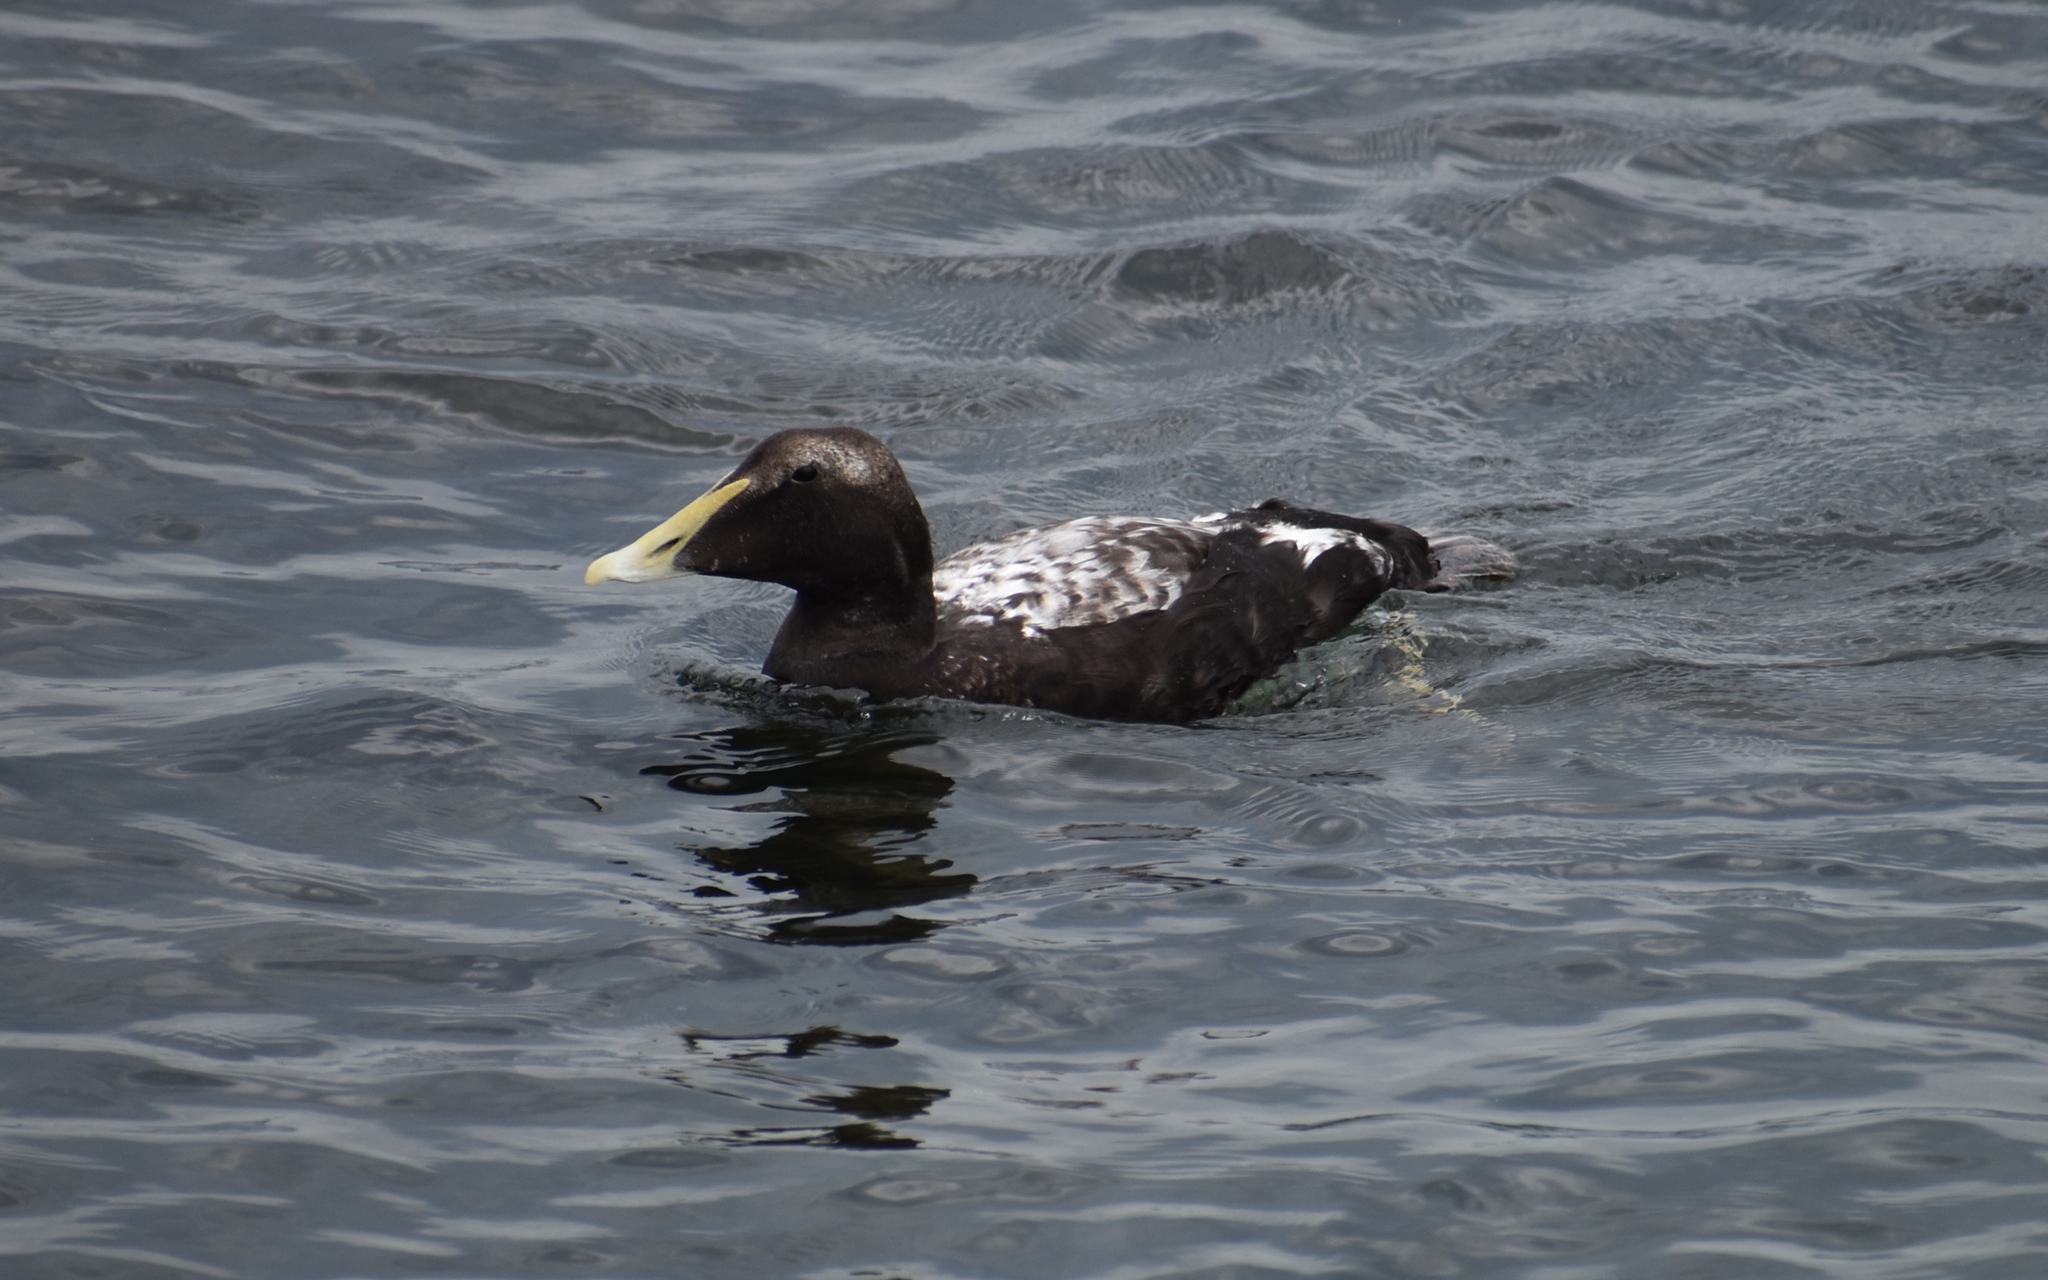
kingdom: Animalia
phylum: Chordata
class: Aves
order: Anseriformes
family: Anatidae
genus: Somateria
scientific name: Somateria mollissima
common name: Common eider
